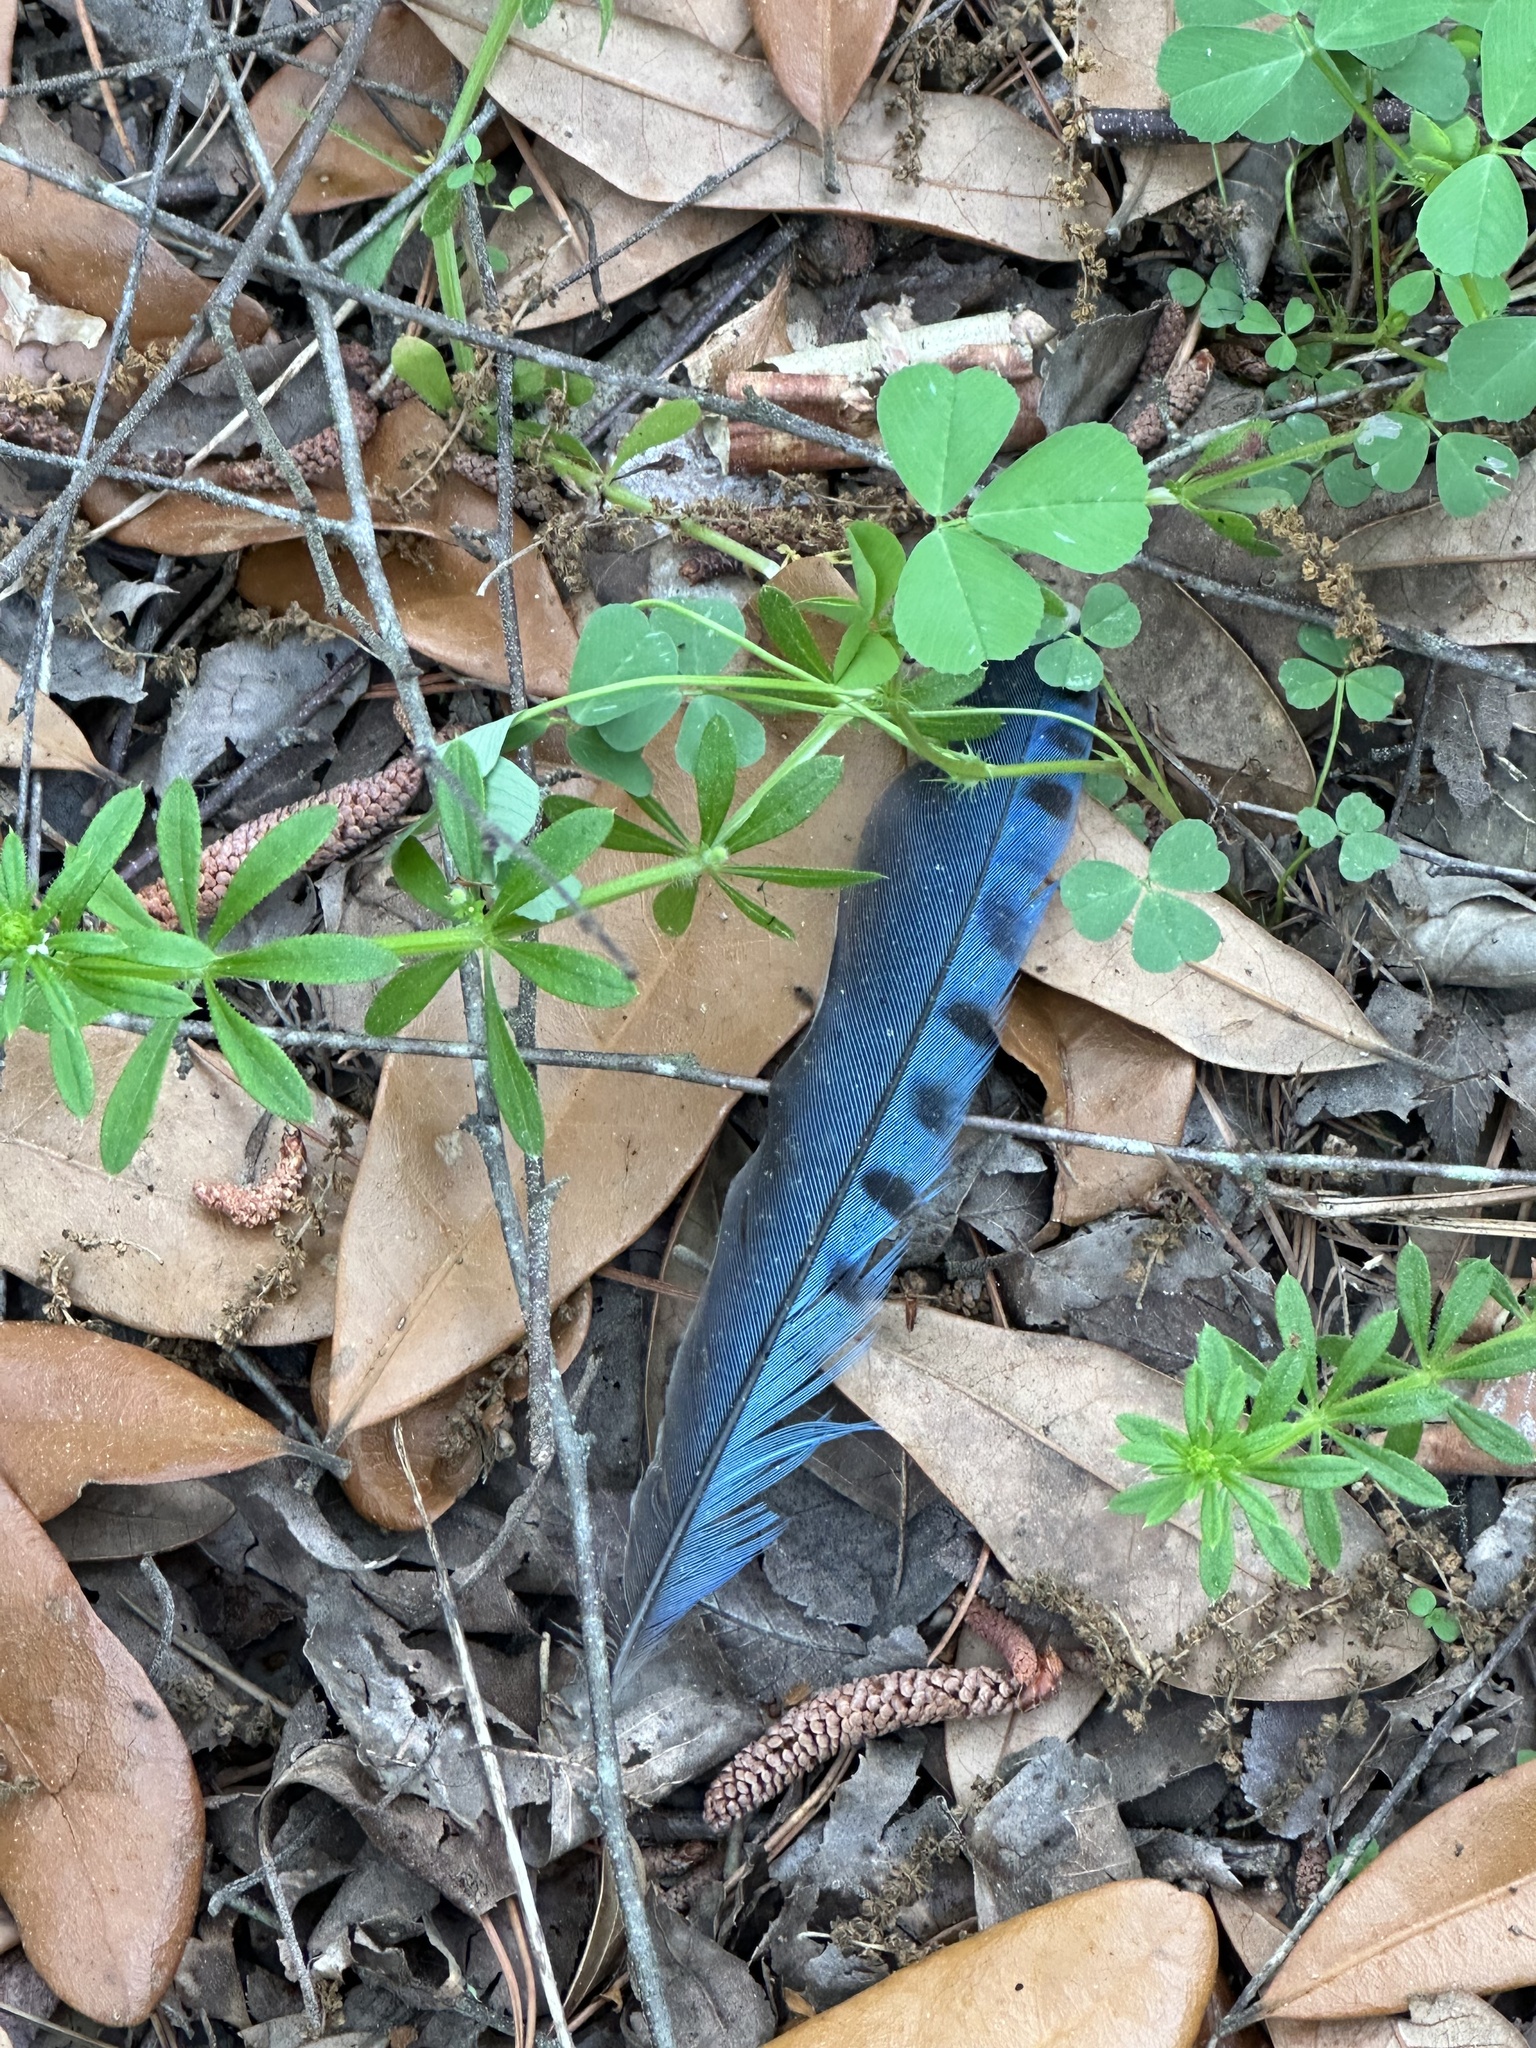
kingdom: Animalia
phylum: Chordata
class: Aves
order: Passeriformes
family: Corvidae
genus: Cyanocitta
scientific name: Cyanocitta cristata
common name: Blue jay
